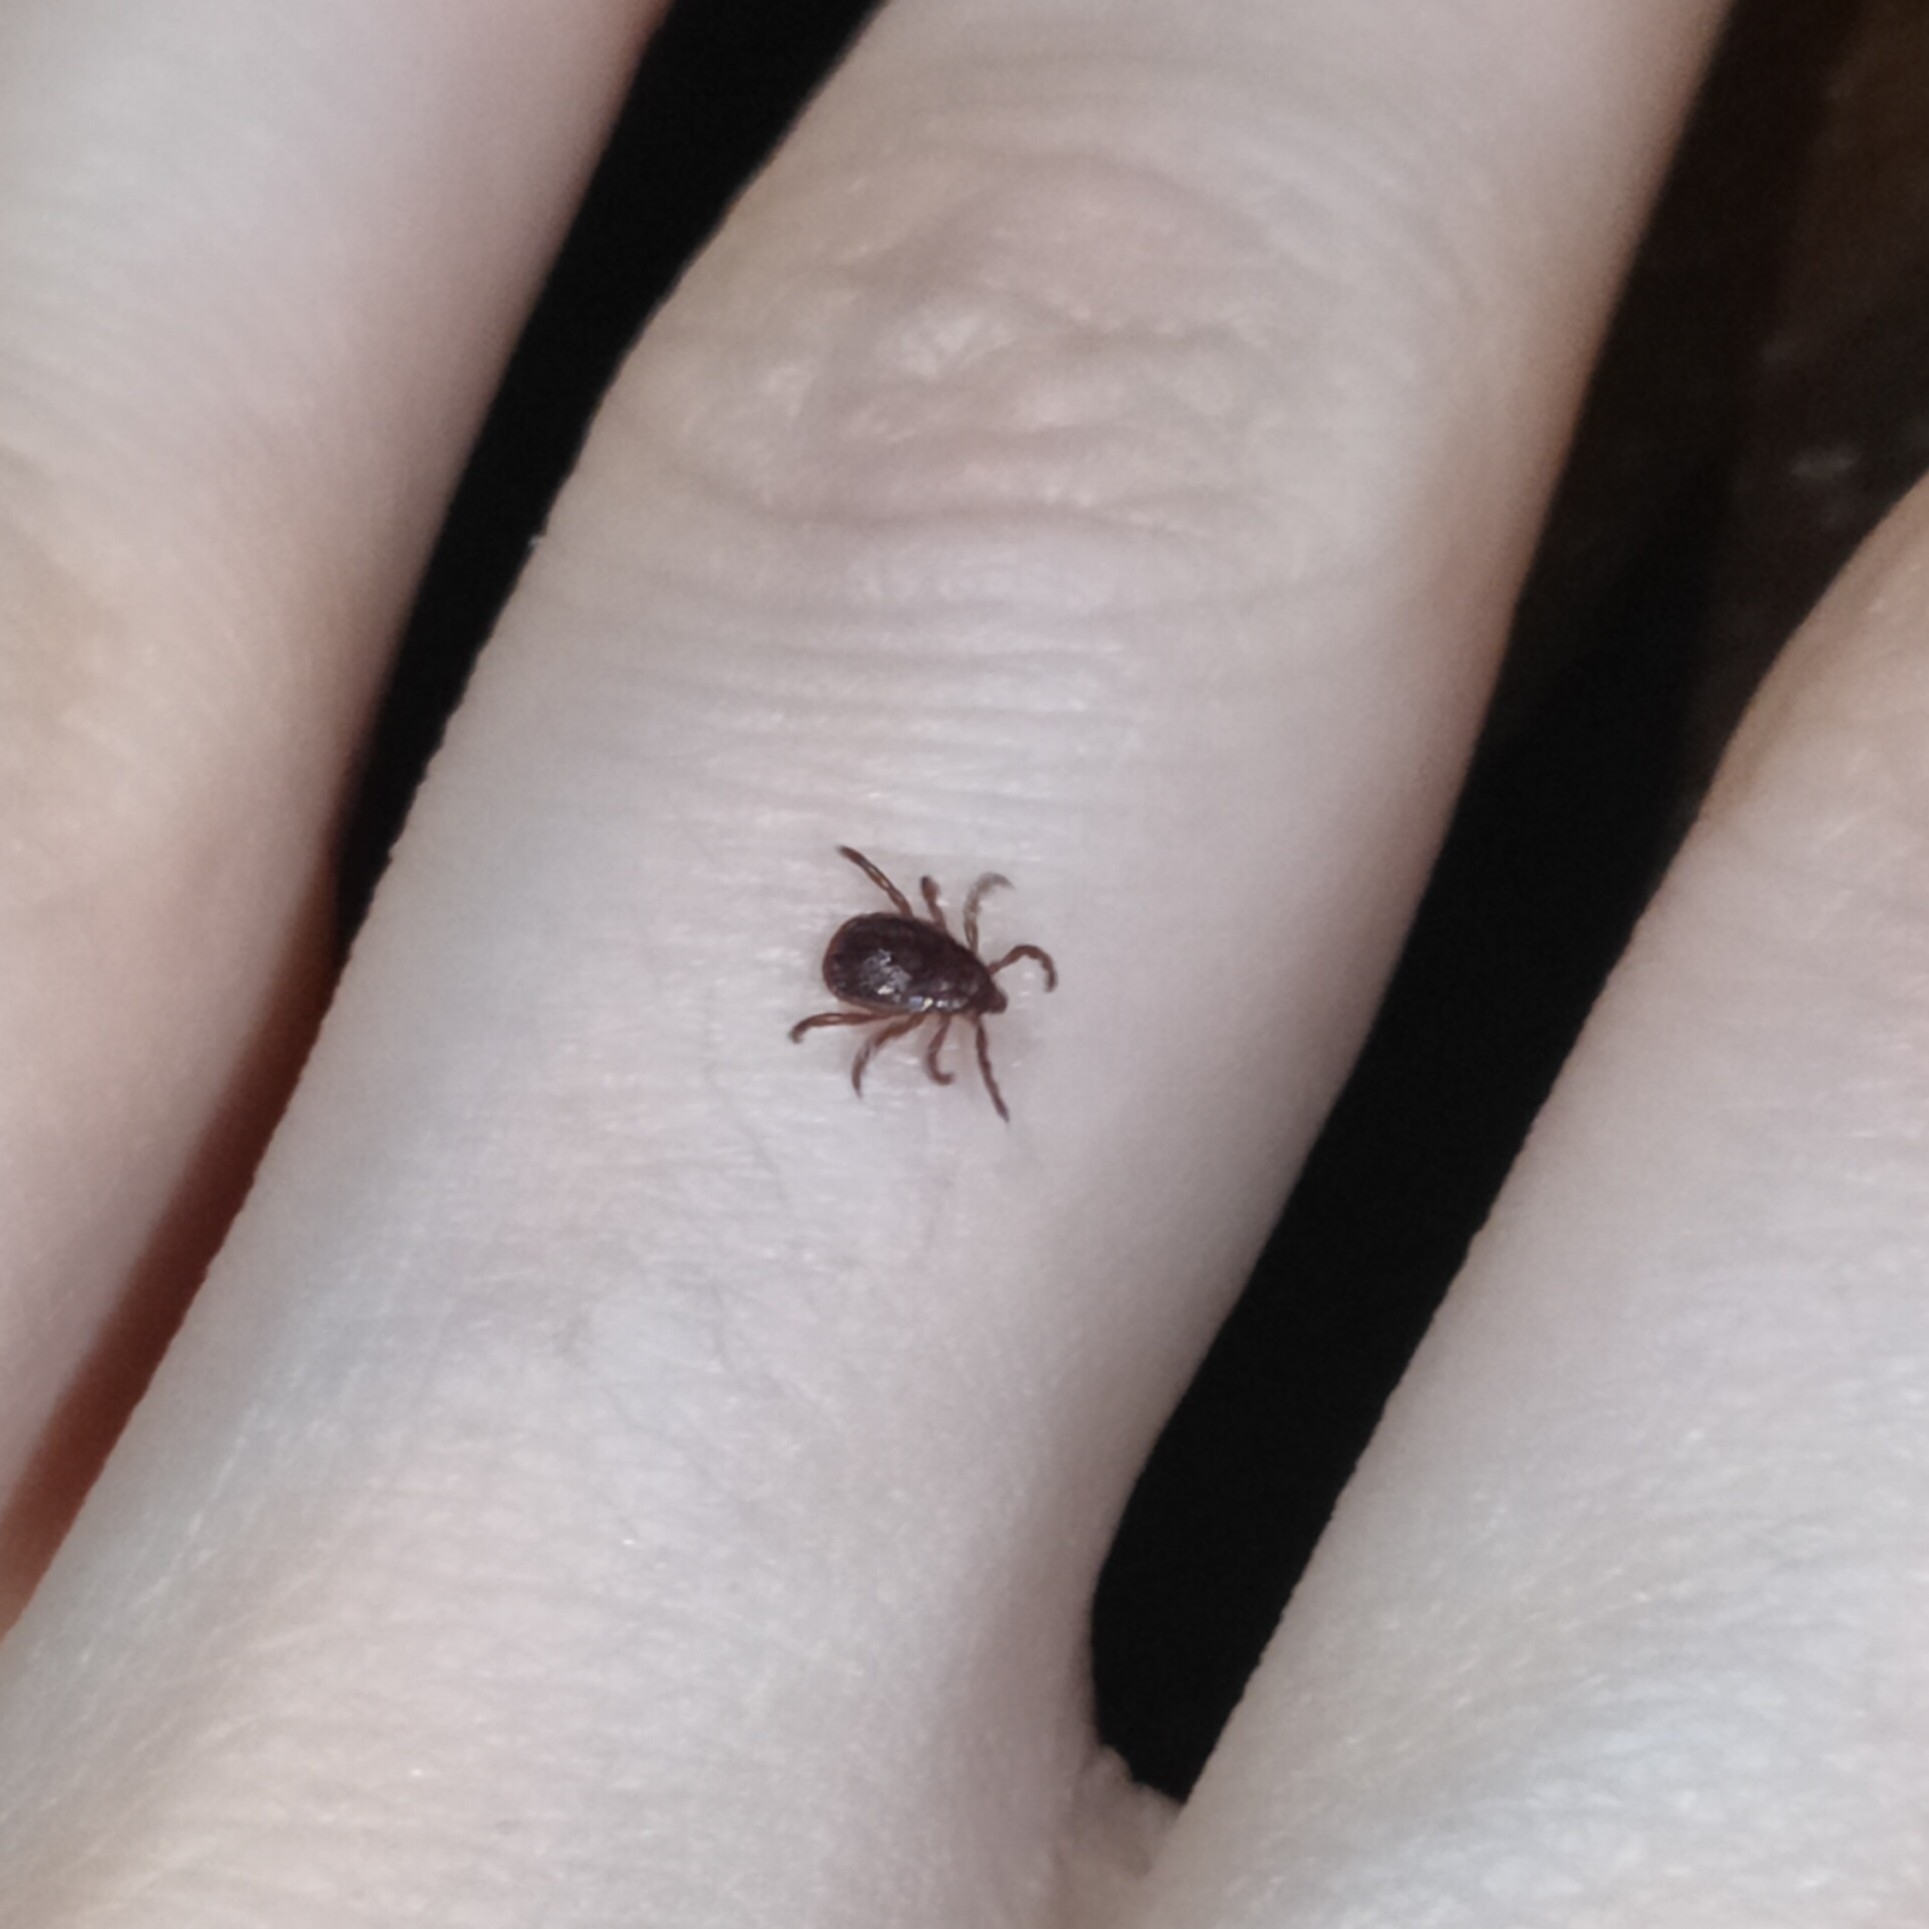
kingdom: Animalia
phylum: Arthropoda
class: Arachnida
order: Ixodida
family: Ixodidae
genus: Ixodes
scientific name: Ixodes ricinus
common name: Castor bean tick
